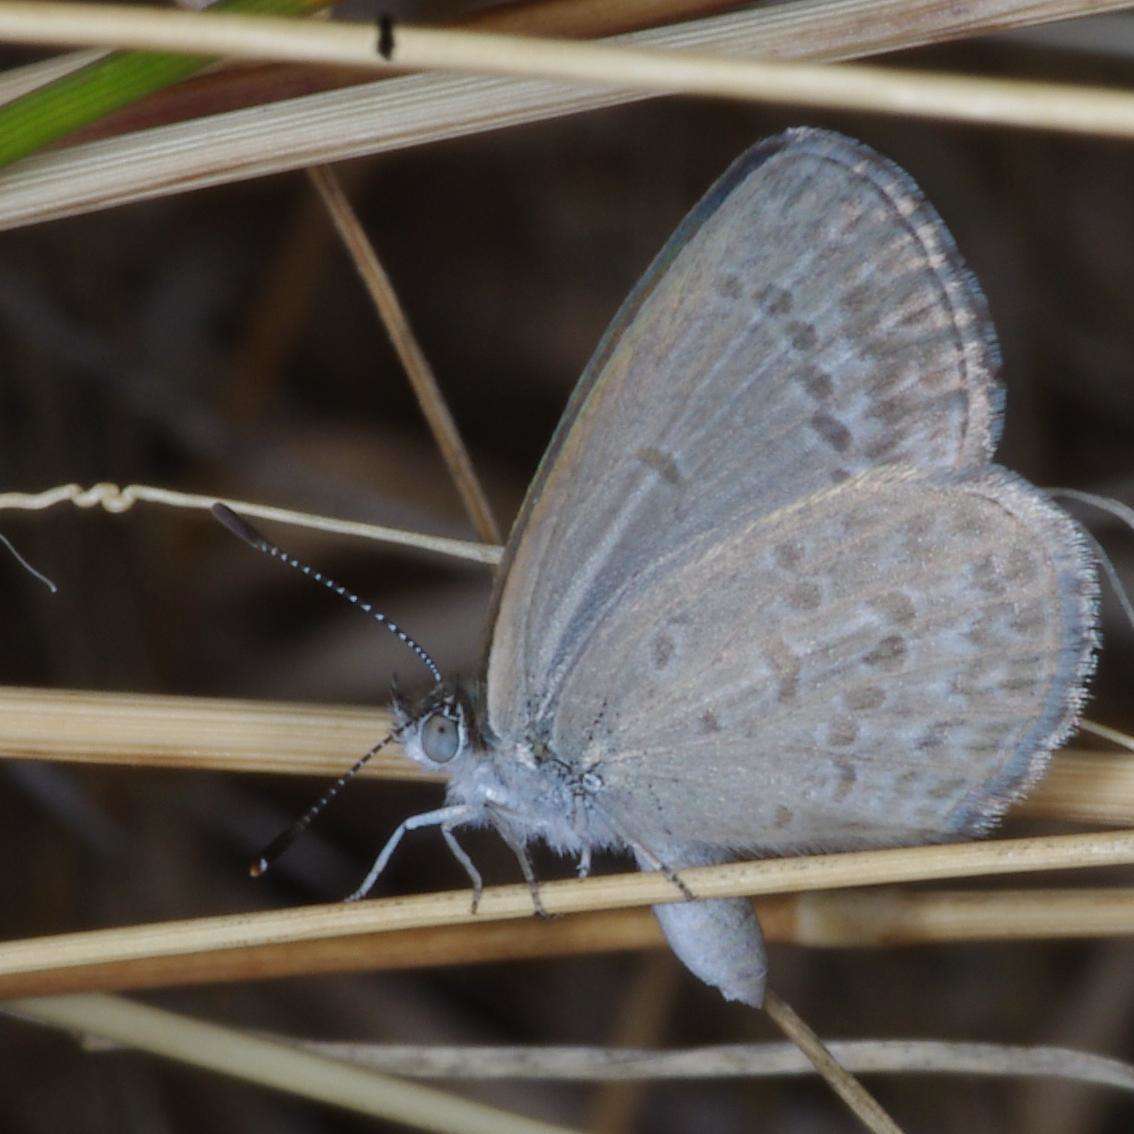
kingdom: Animalia
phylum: Arthropoda
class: Insecta
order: Lepidoptera
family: Lycaenidae
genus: Zizina
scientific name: Zizina labradus
